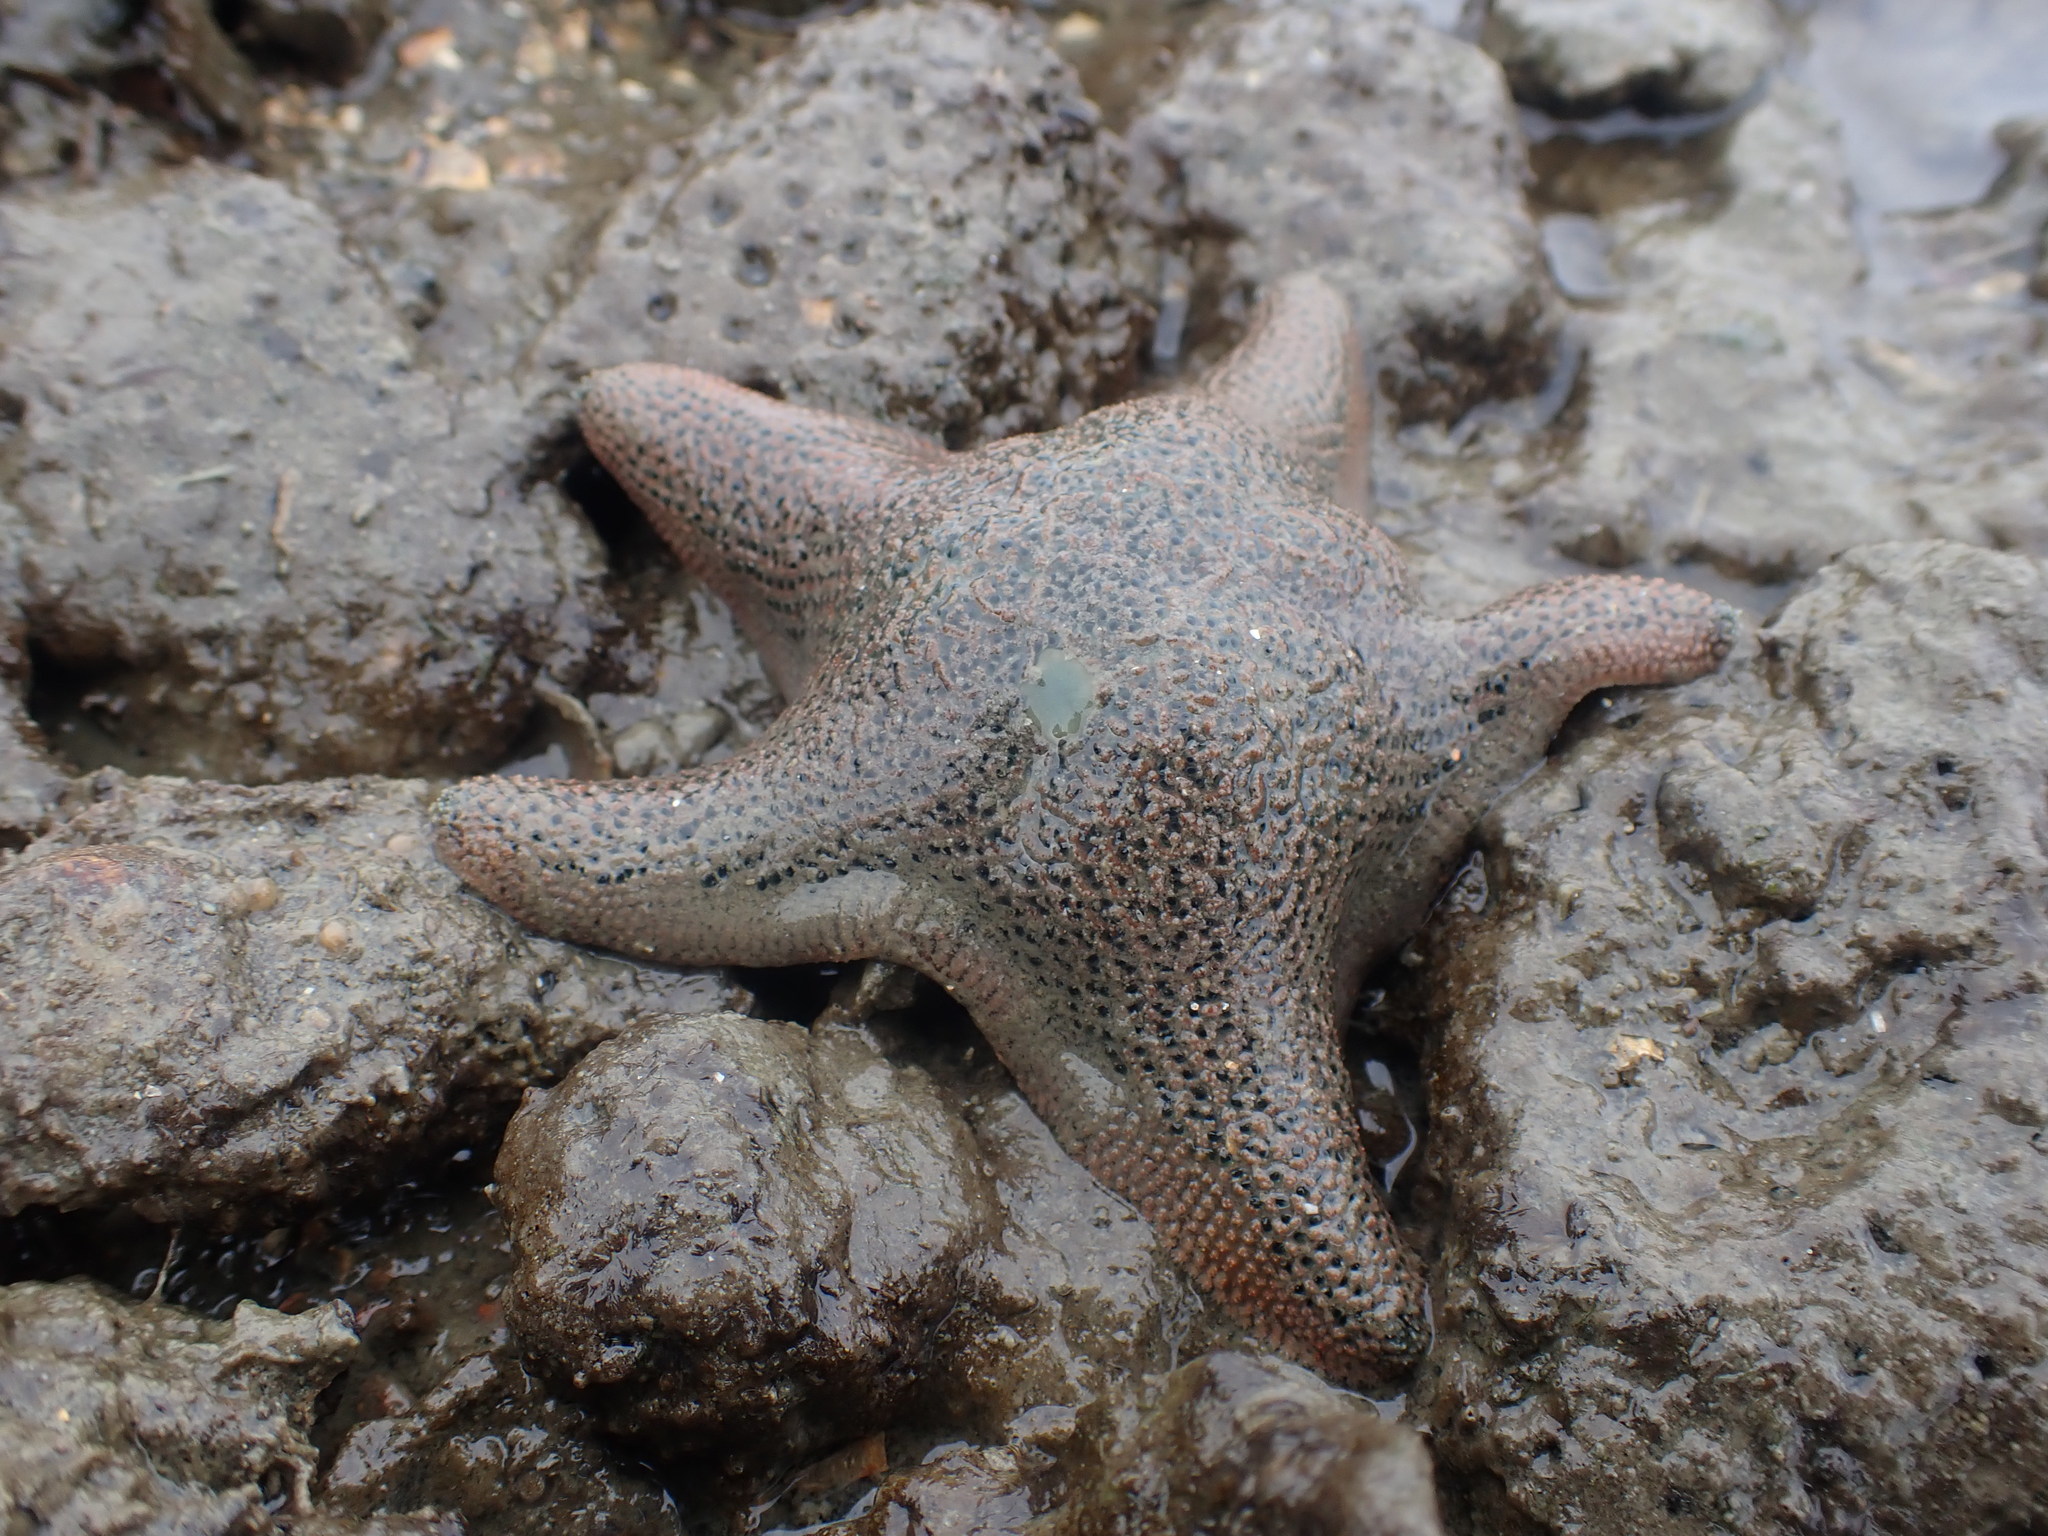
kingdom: Animalia
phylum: Echinodermata
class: Asteroidea
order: Valvatida
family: Asterinidae
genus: Patiriella
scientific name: Patiriella regularis
